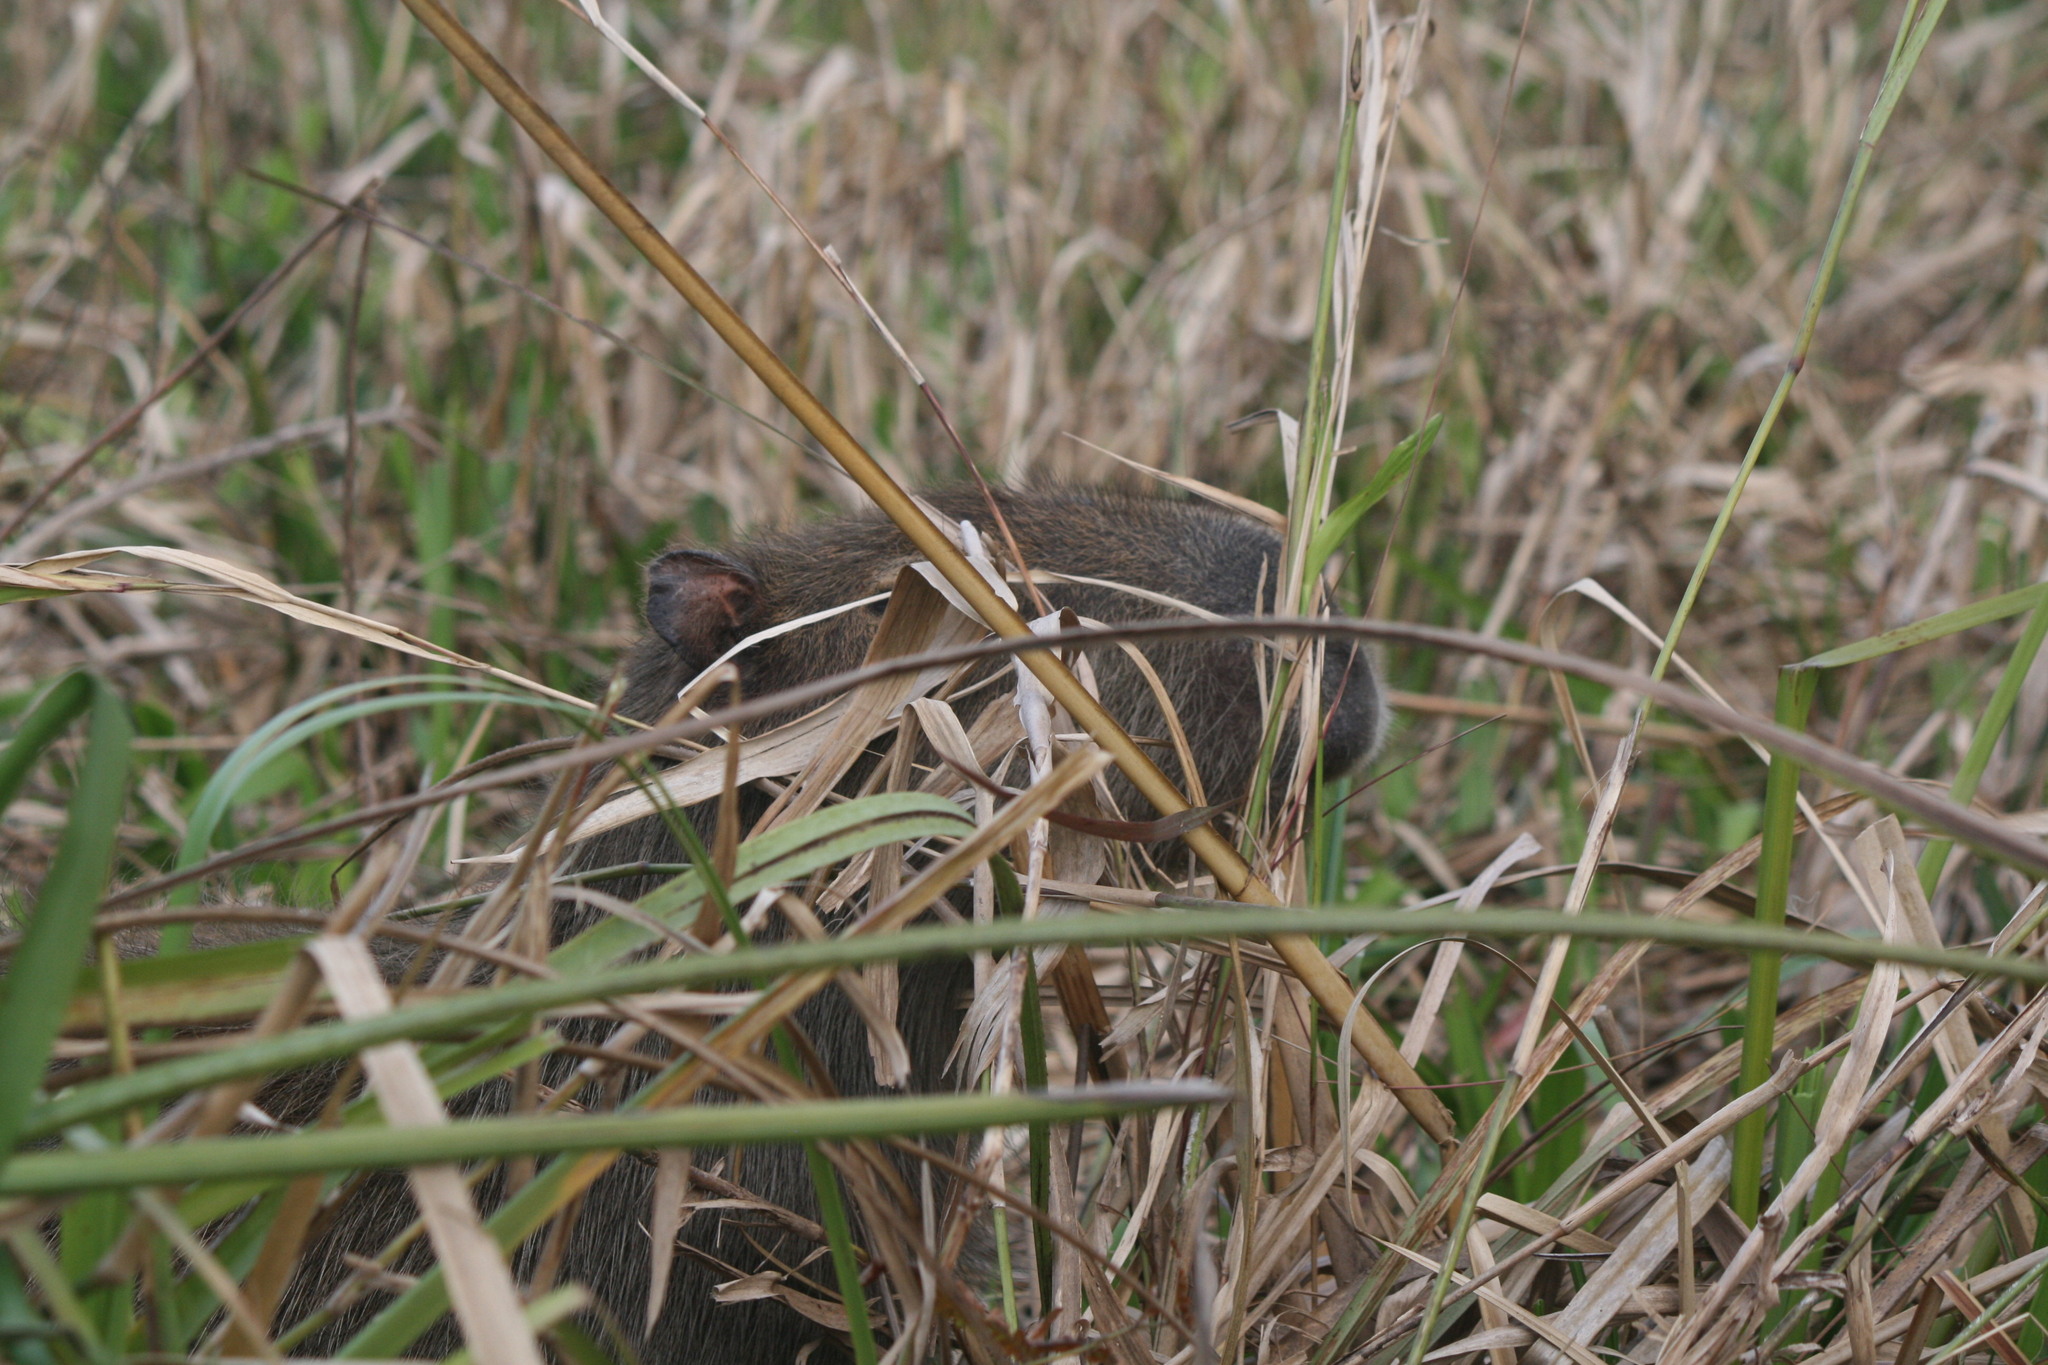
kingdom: Animalia
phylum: Chordata
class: Mammalia
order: Rodentia
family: Caviidae
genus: Hydrochoerus
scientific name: Hydrochoerus hydrochaeris
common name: Capybara
